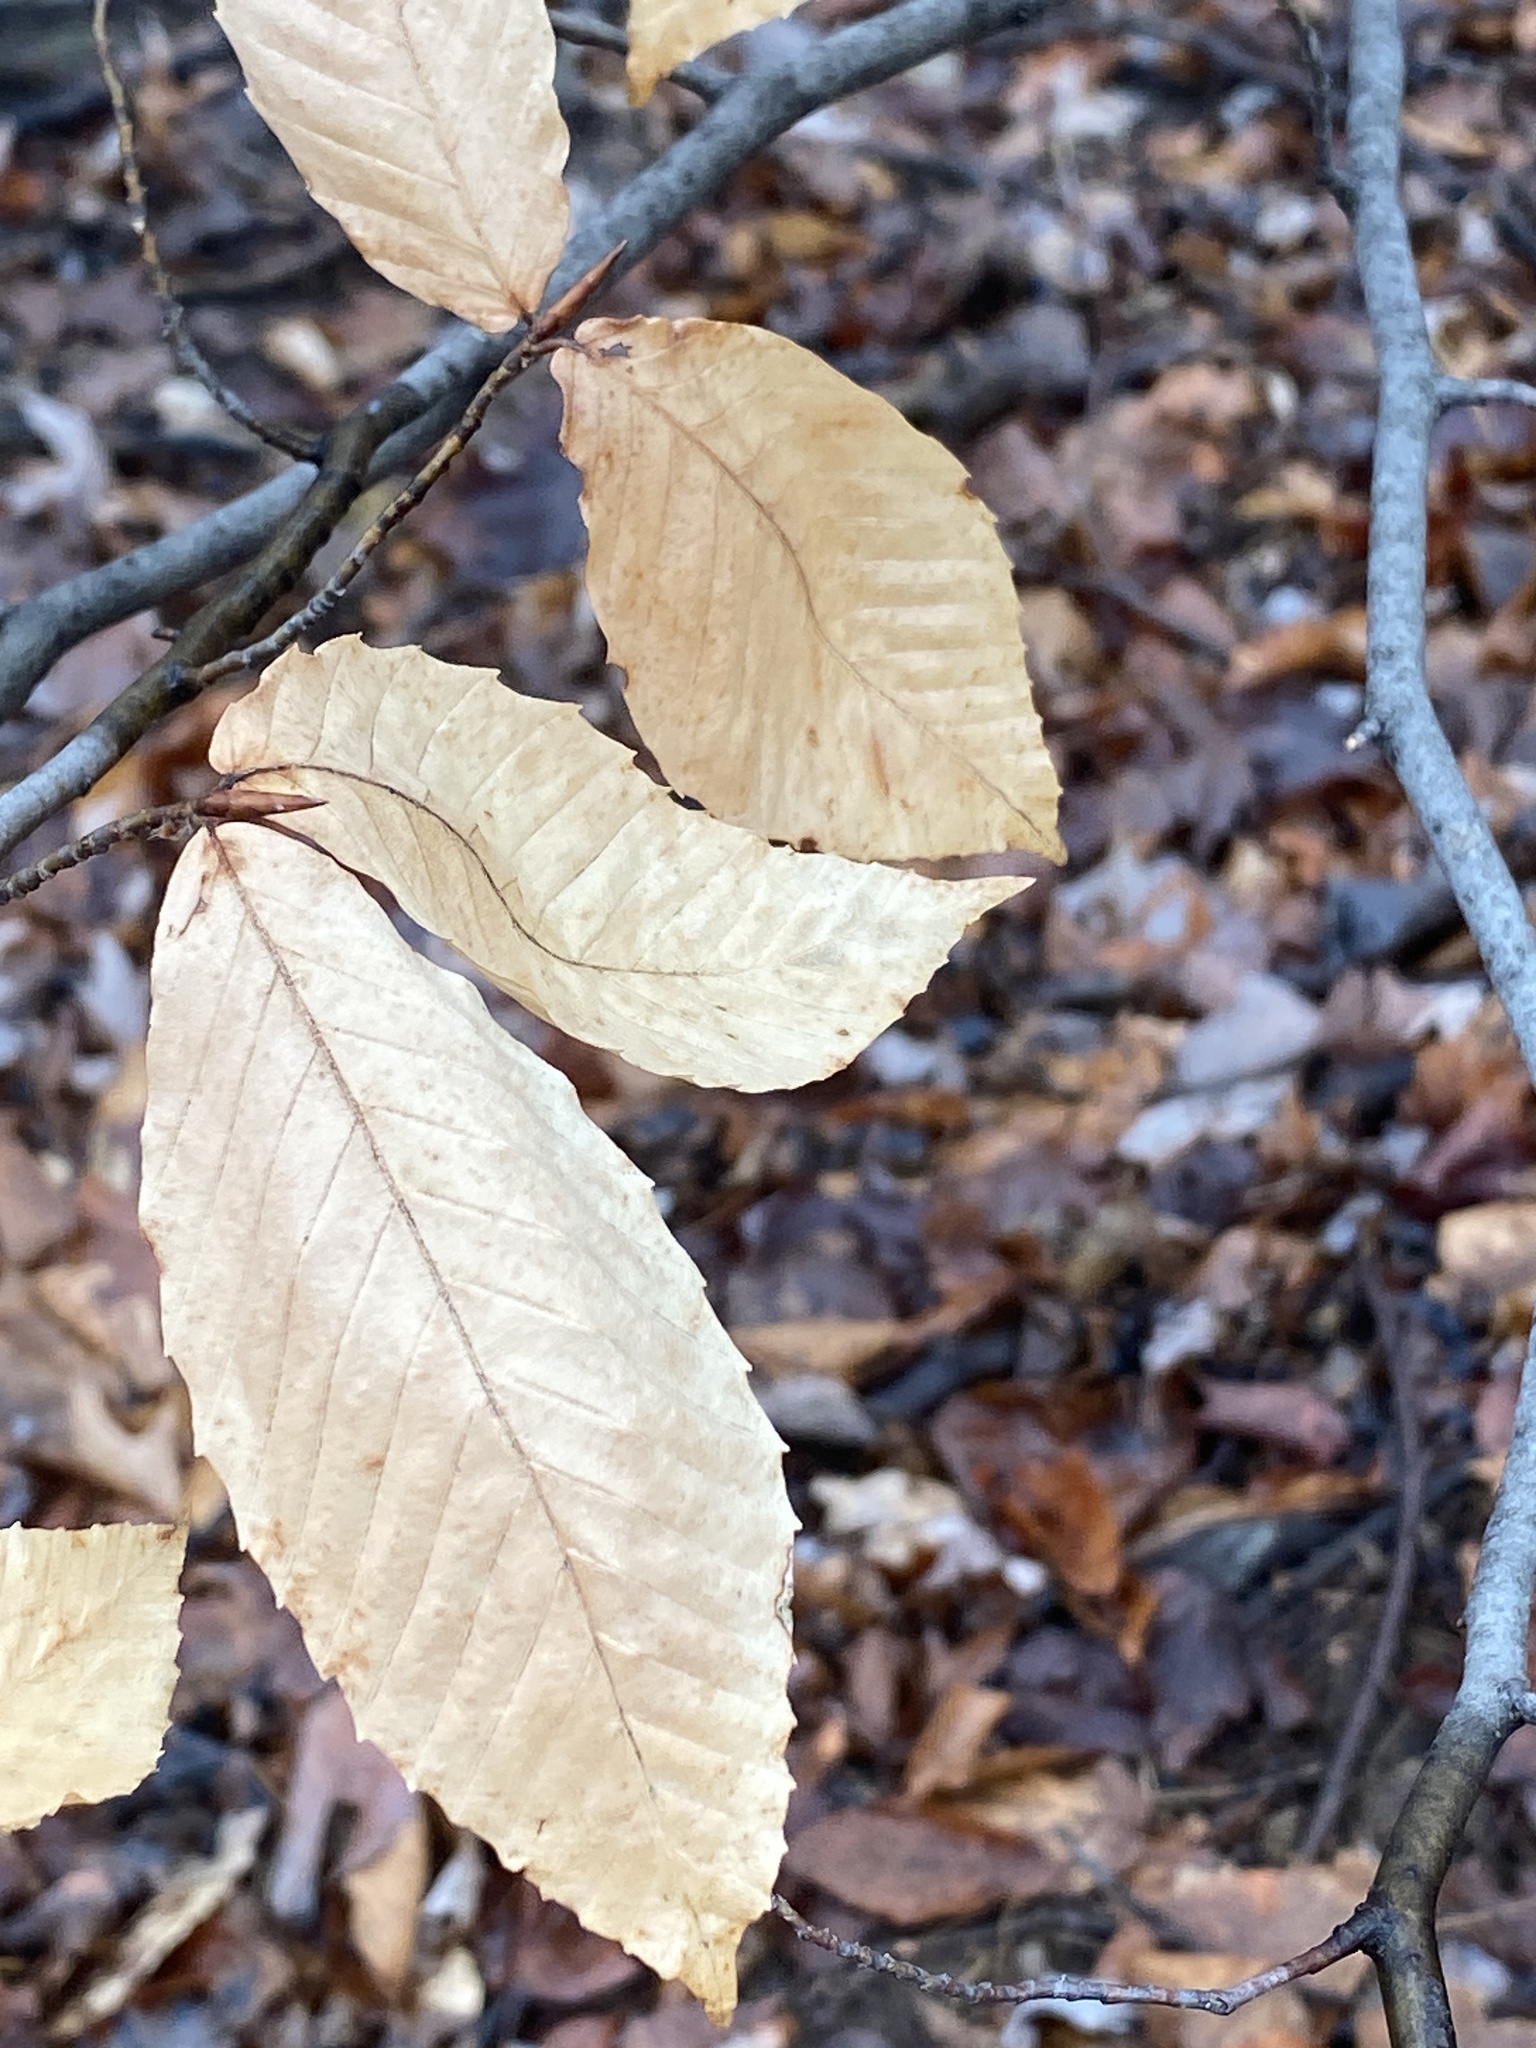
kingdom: Plantae
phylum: Tracheophyta
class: Magnoliopsida
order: Fagales
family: Fagaceae
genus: Fagus
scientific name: Fagus grandifolia
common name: American beech
